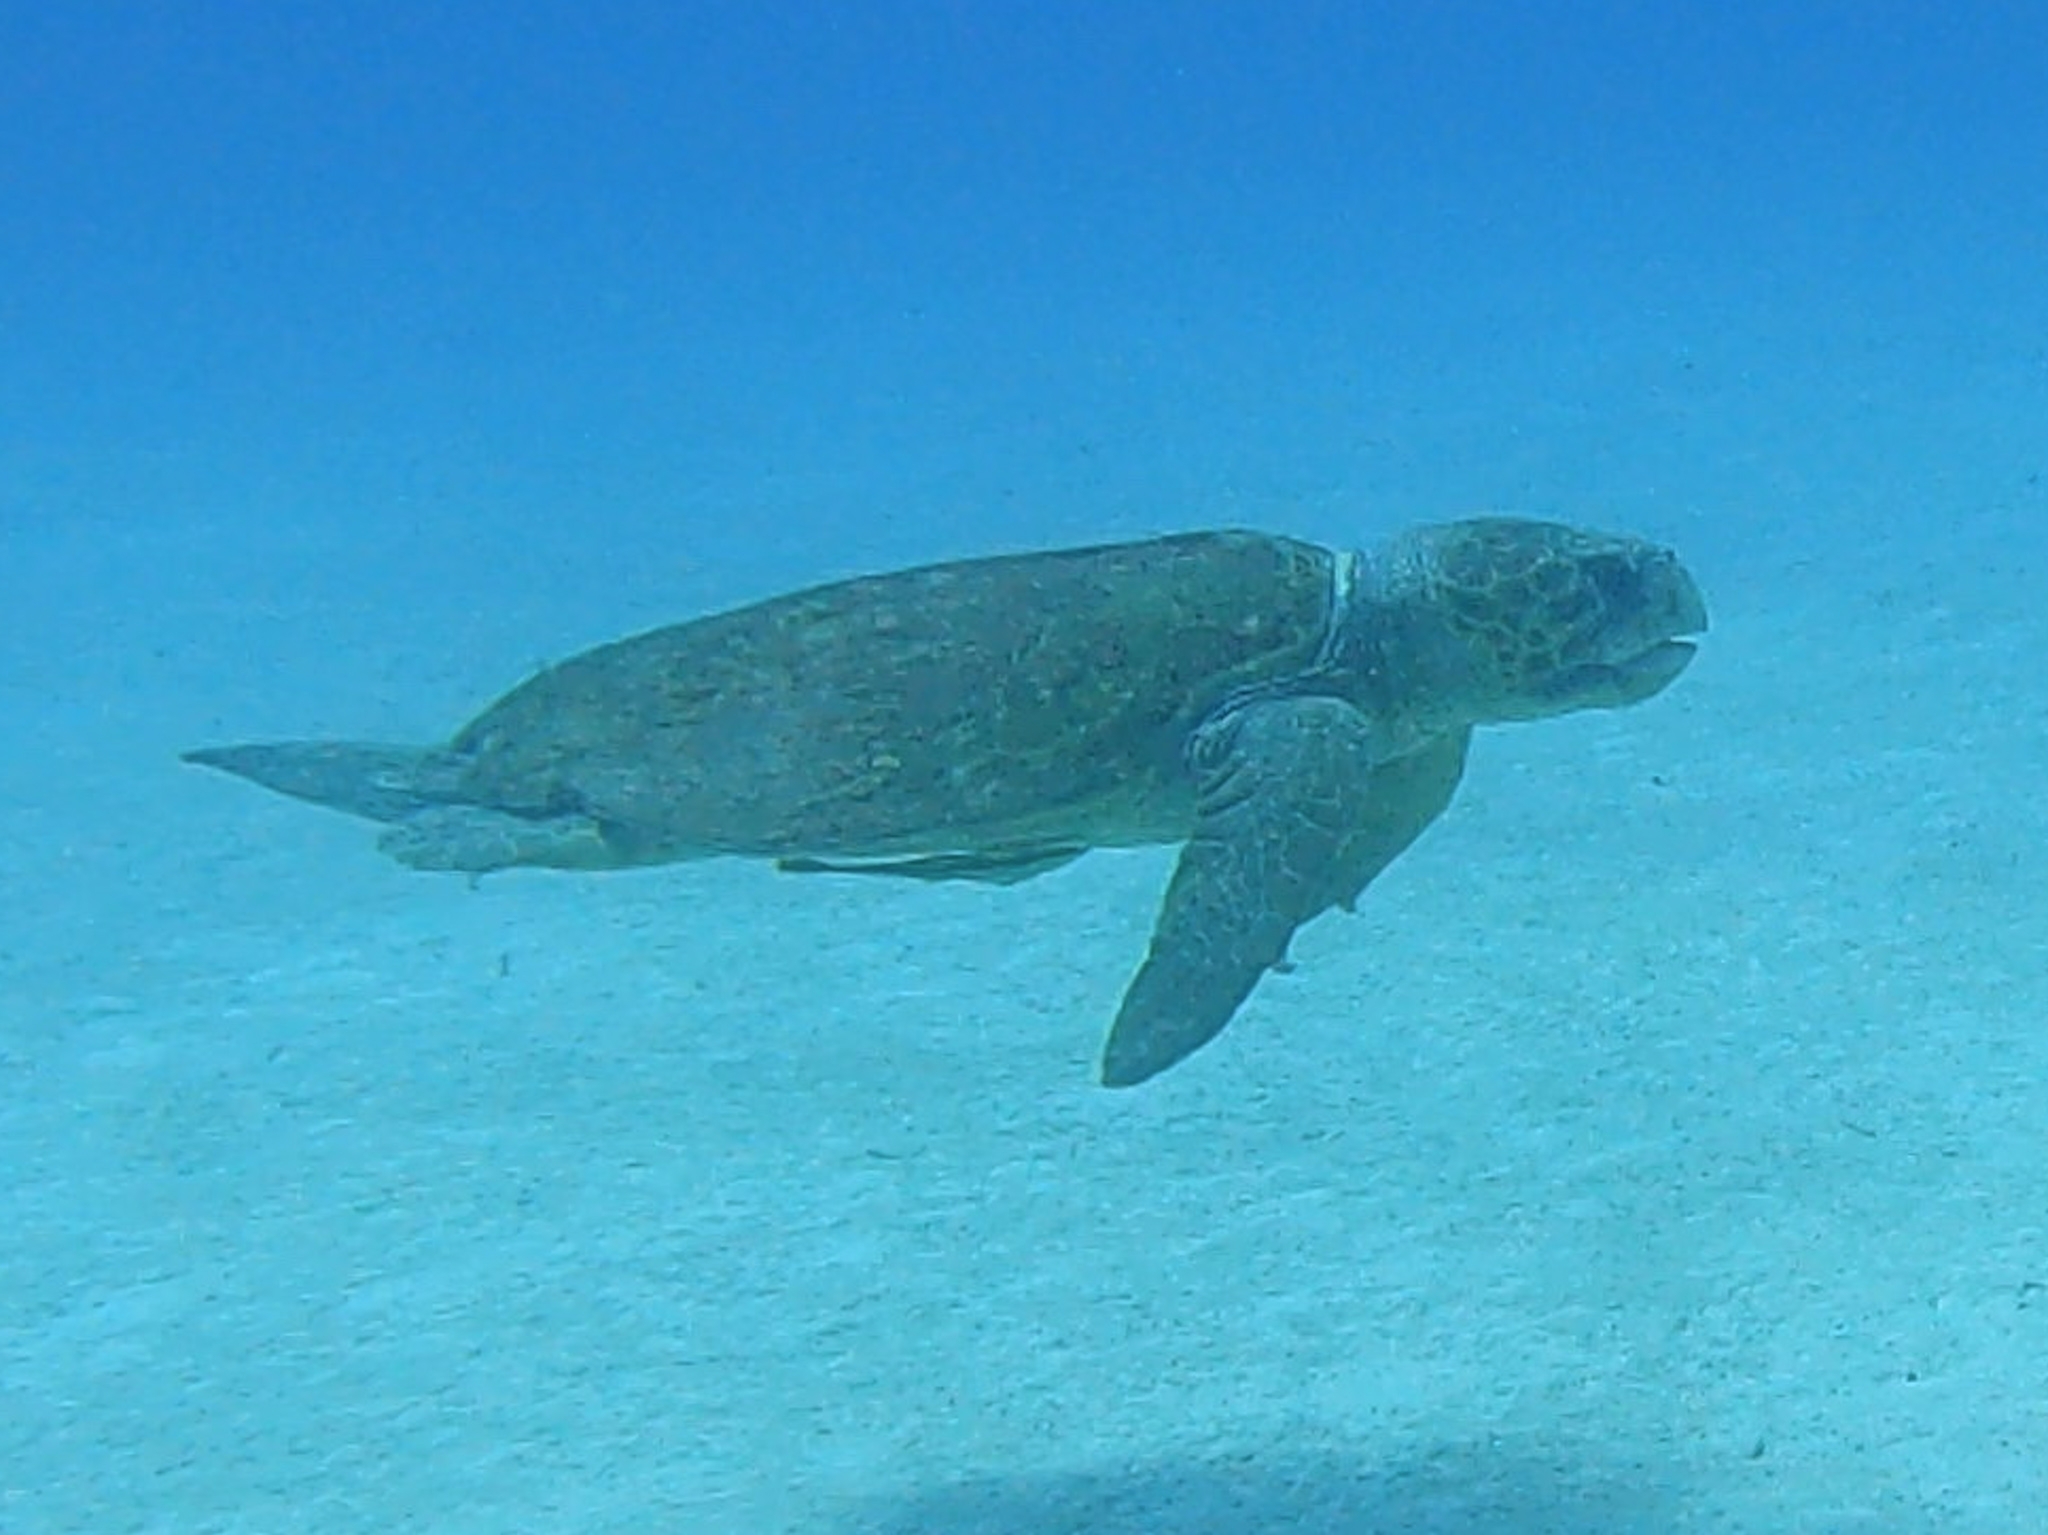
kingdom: Animalia
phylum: Chordata
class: Testudines
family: Cheloniidae
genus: Caretta
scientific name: Caretta caretta
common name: Loggerhead sea turtle
